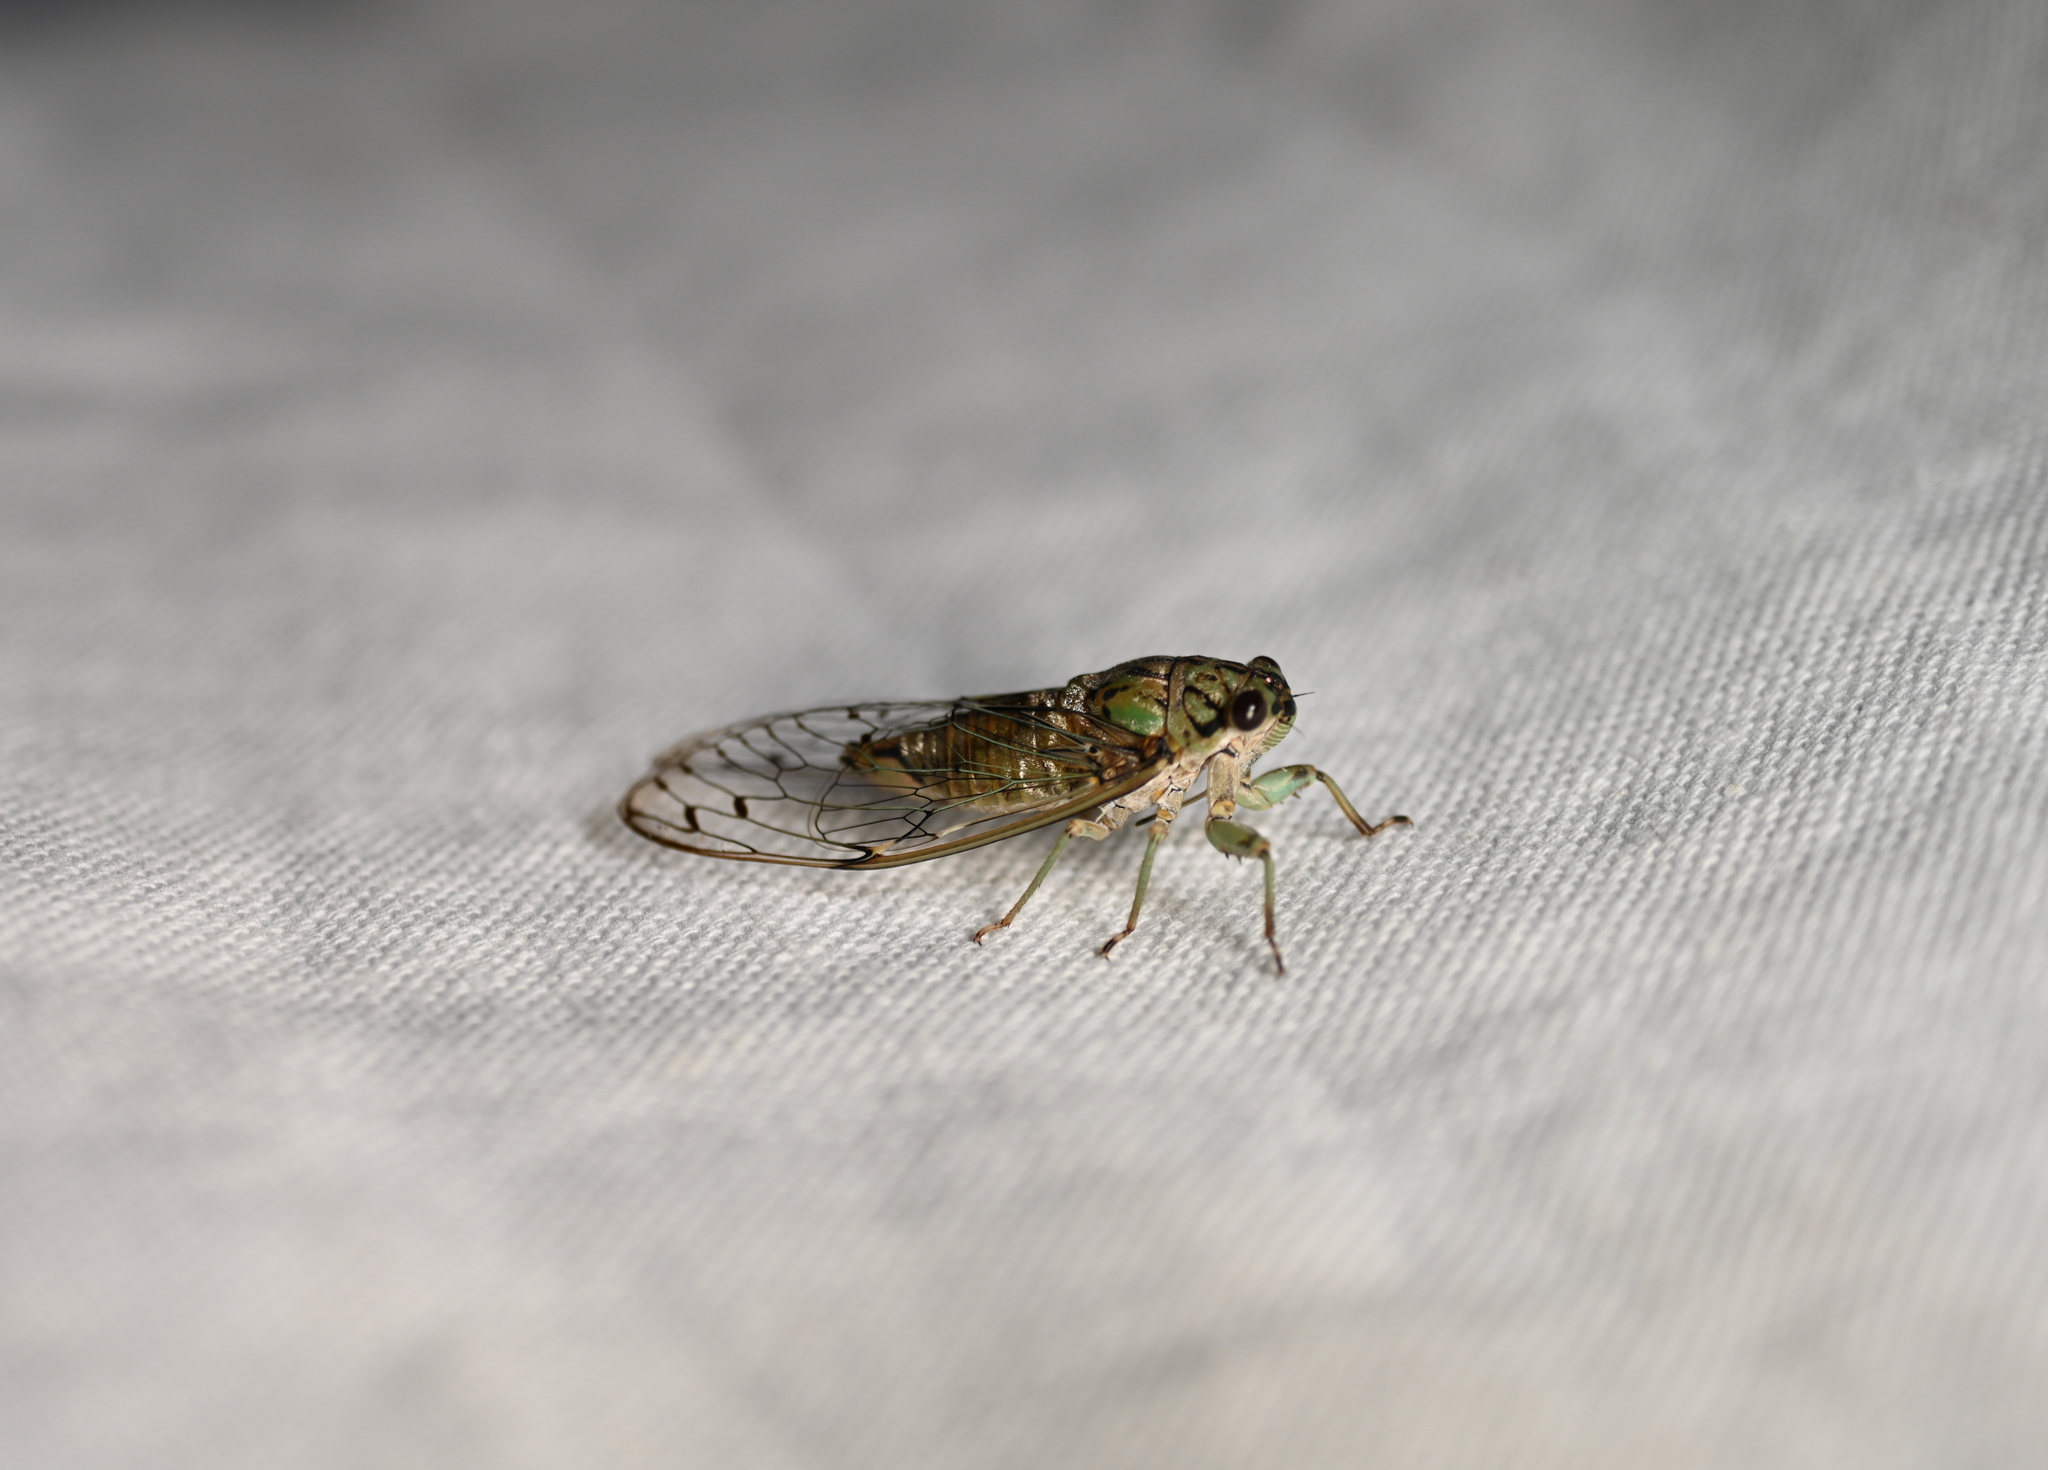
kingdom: Animalia
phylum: Arthropoda
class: Insecta
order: Hemiptera
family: Cicadidae
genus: Neocicada
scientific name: Neocicada hieroglyphica
